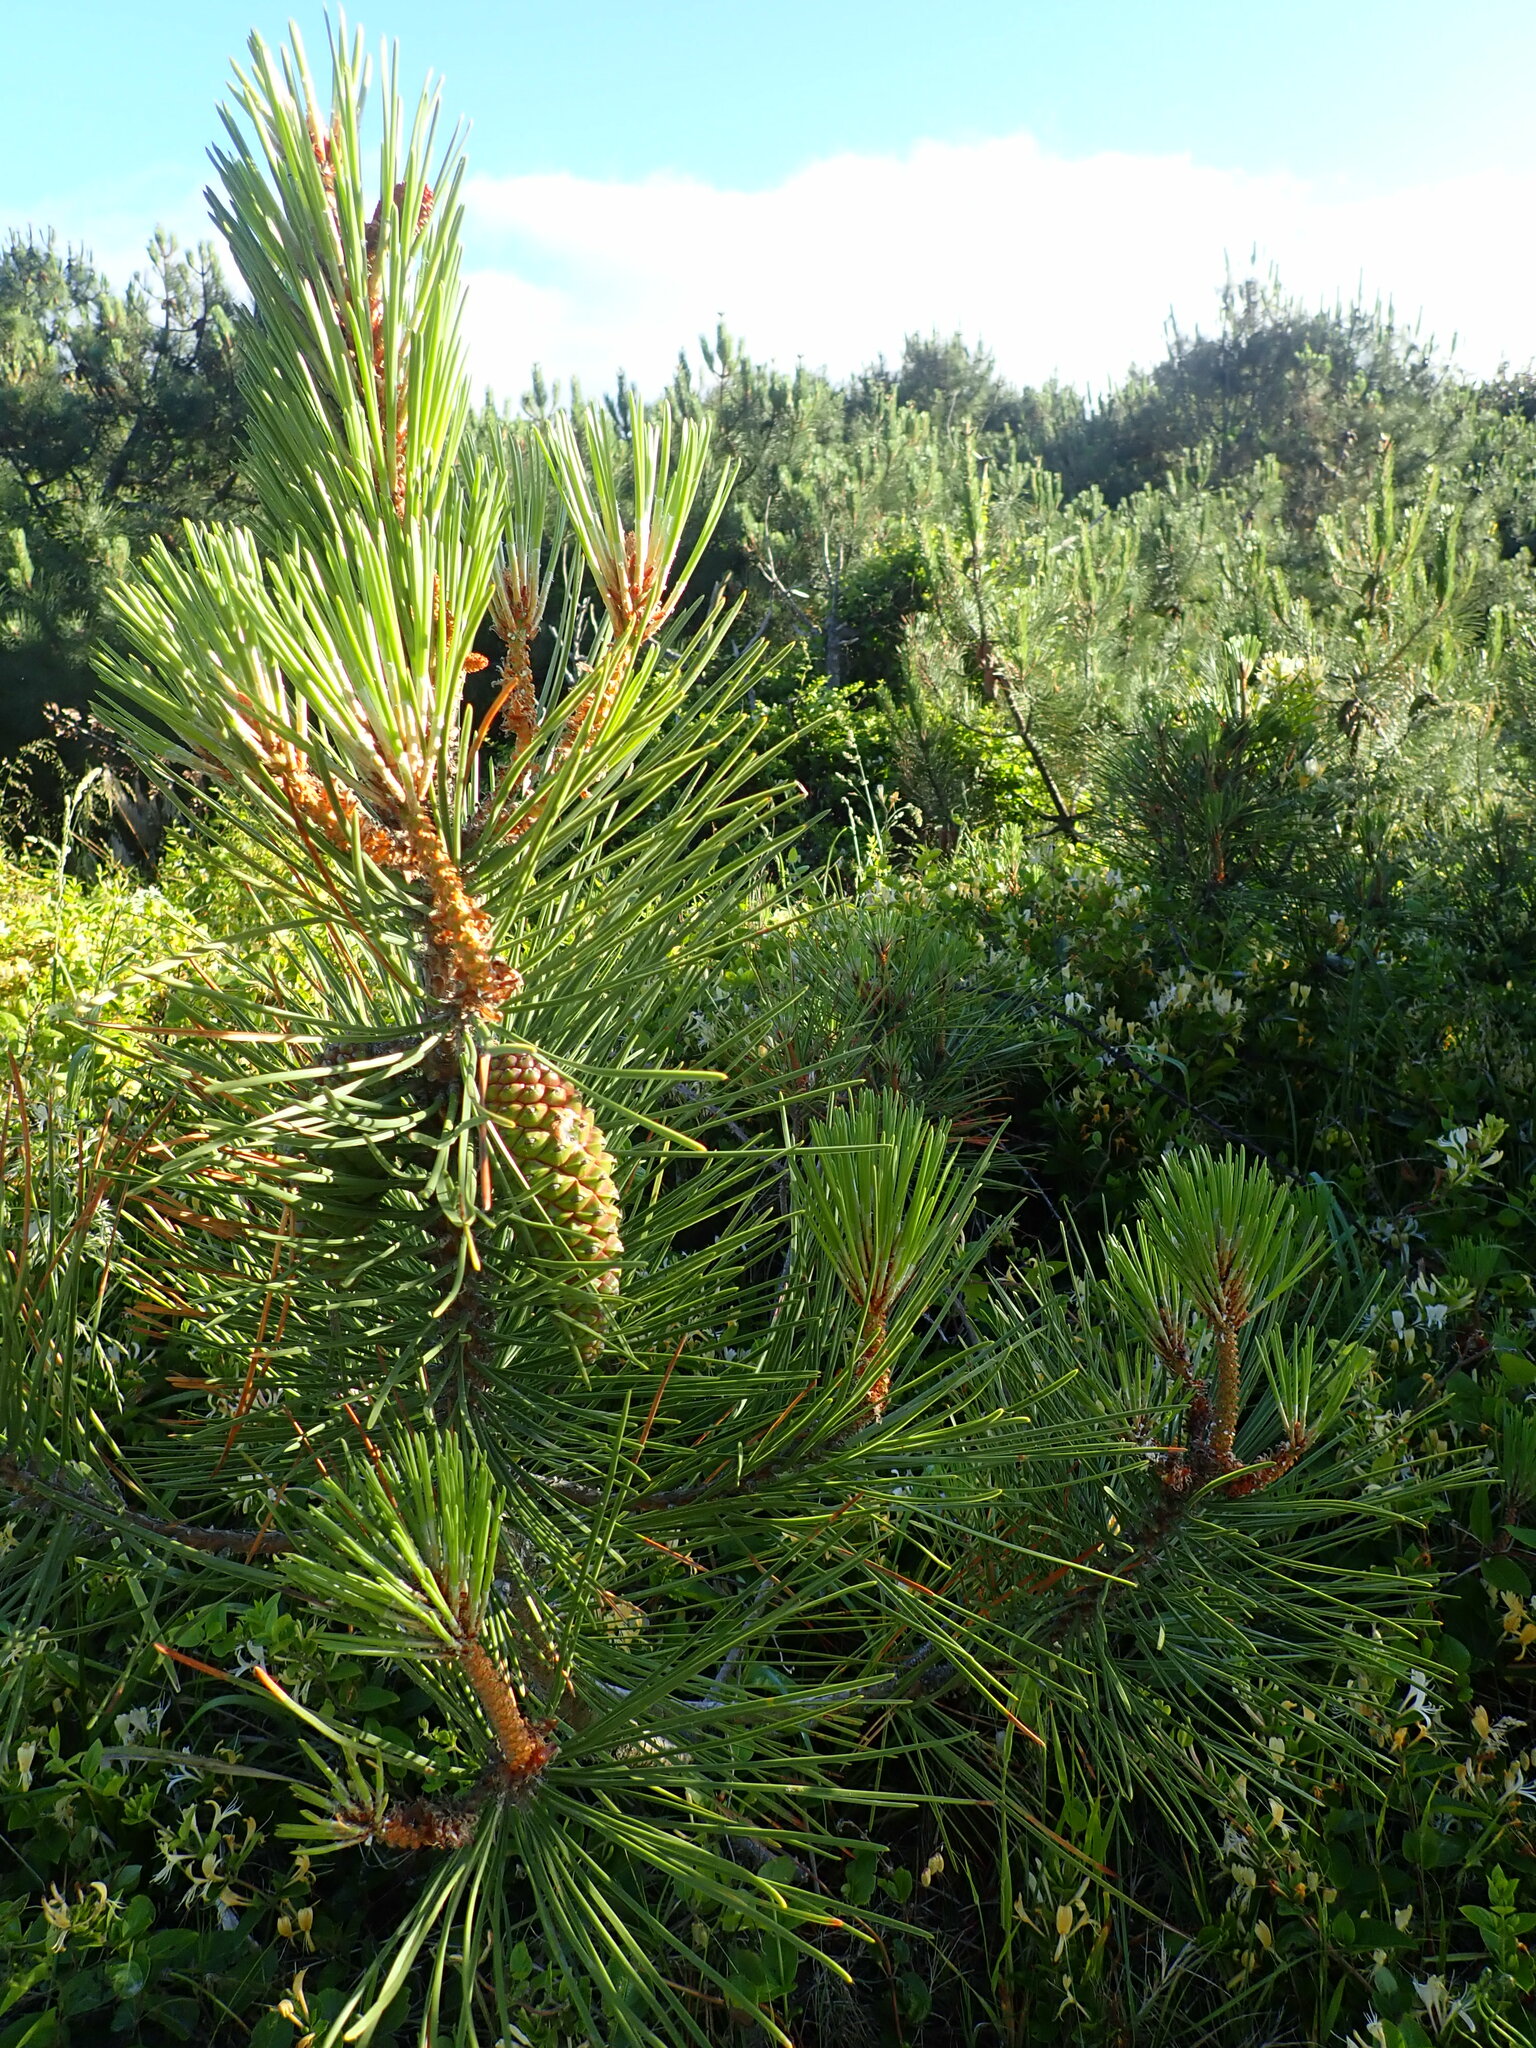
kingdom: Plantae
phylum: Tracheophyta
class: Pinopsida
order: Pinales
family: Pinaceae
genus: Pinus
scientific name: Pinus pinaster
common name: Maritime pine
